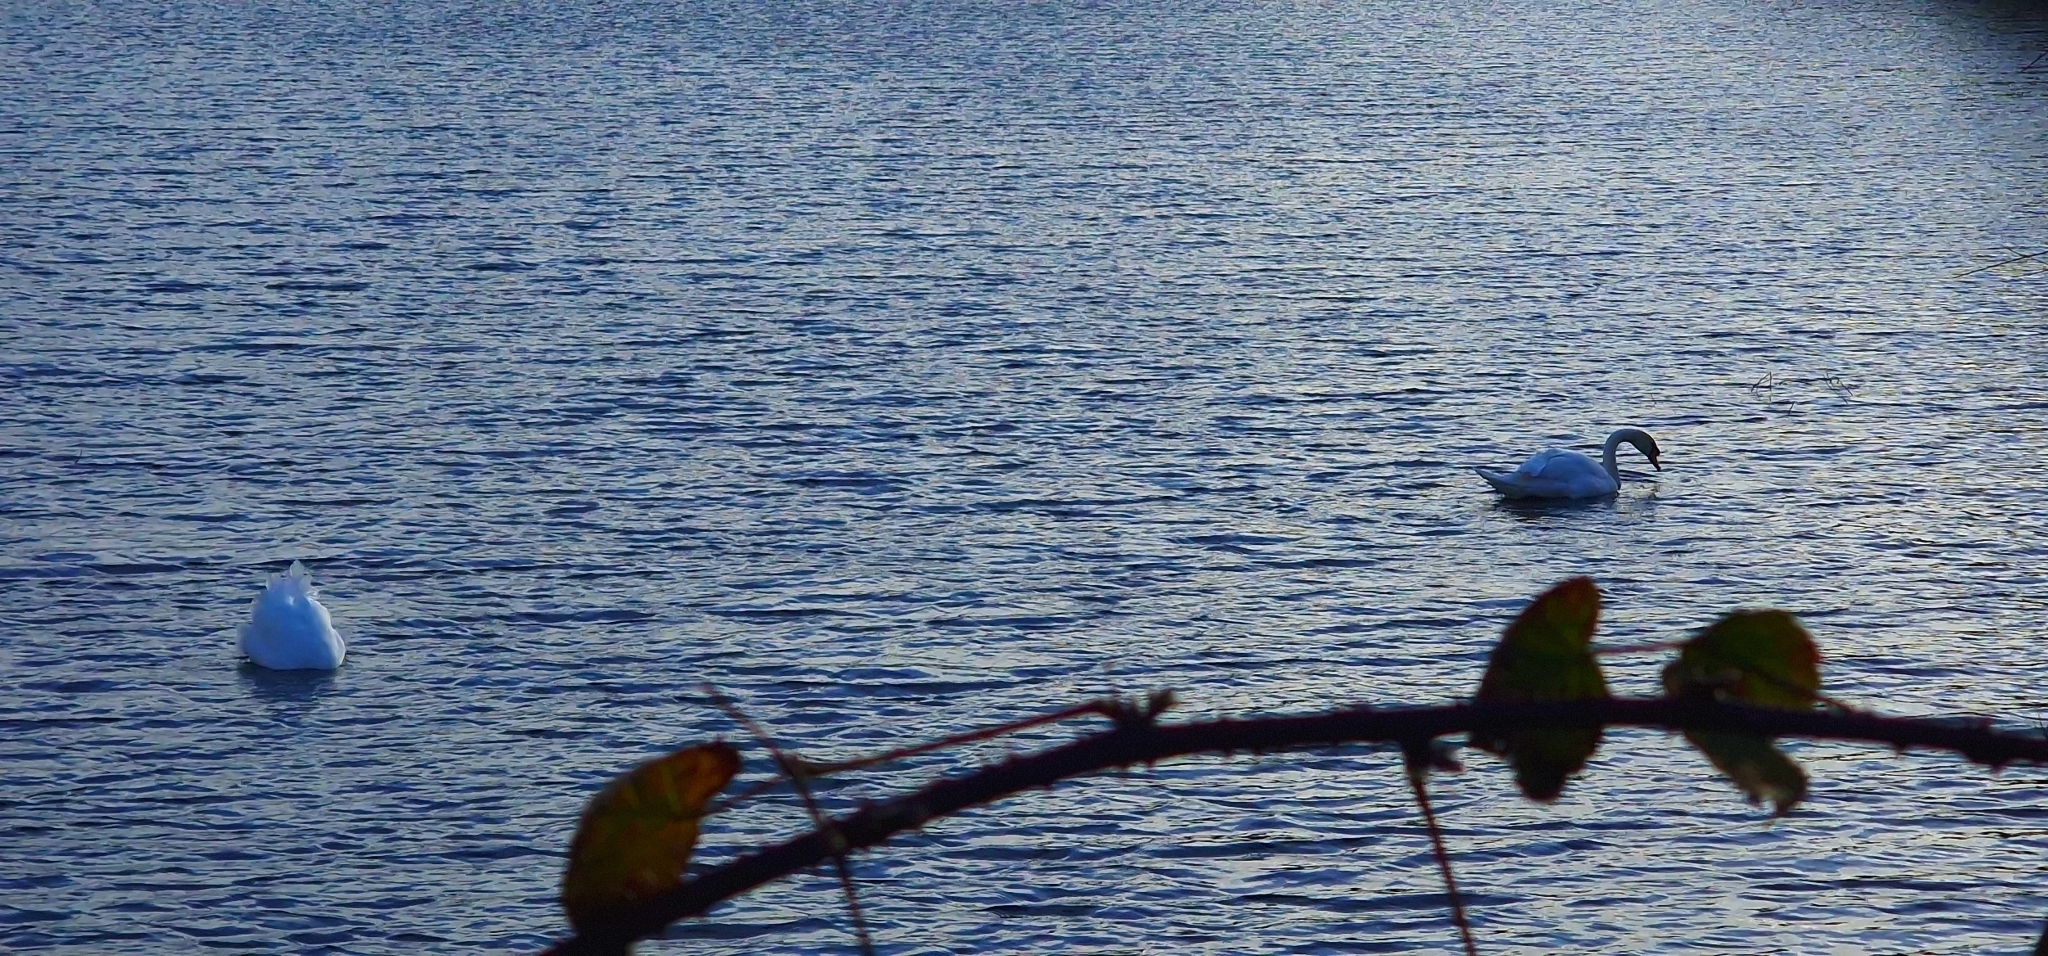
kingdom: Animalia
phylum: Chordata
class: Aves
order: Anseriformes
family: Anatidae
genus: Cygnus
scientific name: Cygnus olor
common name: Mute swan
